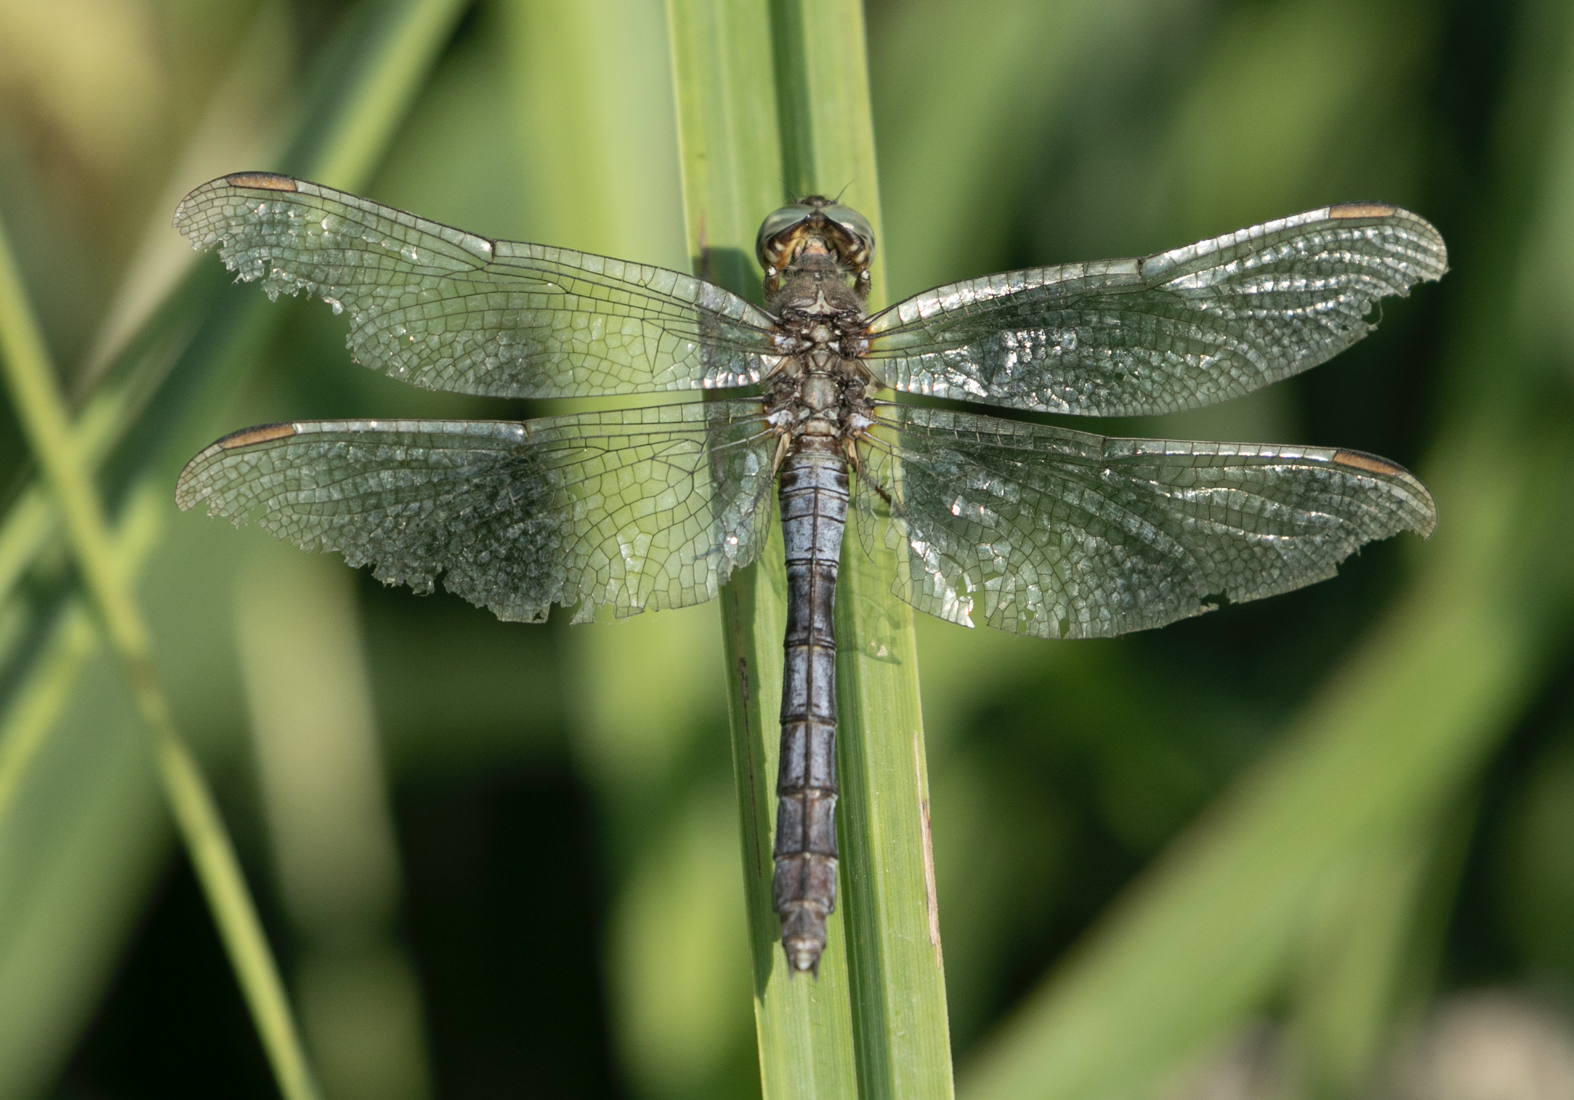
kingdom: Animalia
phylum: Arthropoda
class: Insecta
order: Odonata
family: Libellulidae
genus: Orthetrum
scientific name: Orthetrum coerulescens
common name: Keeled skimmer
